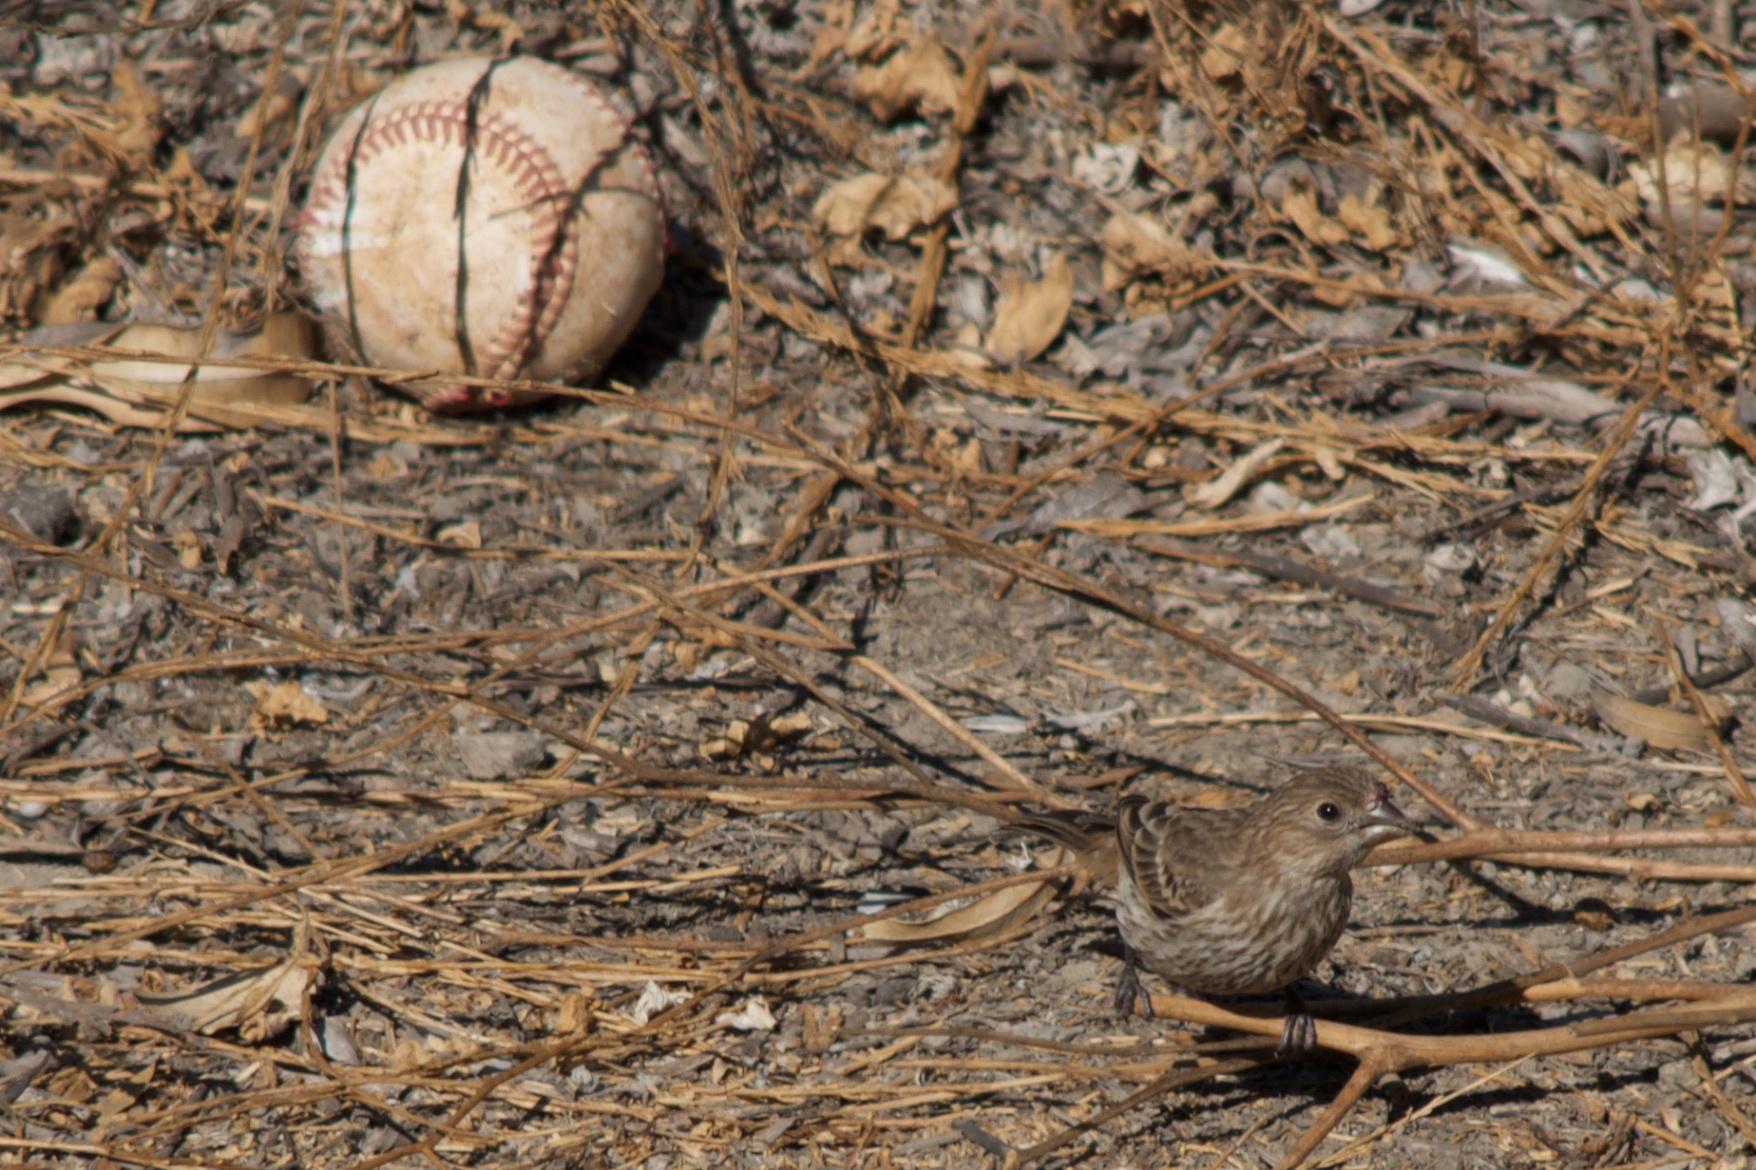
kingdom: Animalia
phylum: Chordata
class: Aves
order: Passeriformes
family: Fringillidae
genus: Haemorhous
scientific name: Haemorhous mexicanus
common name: House finch
